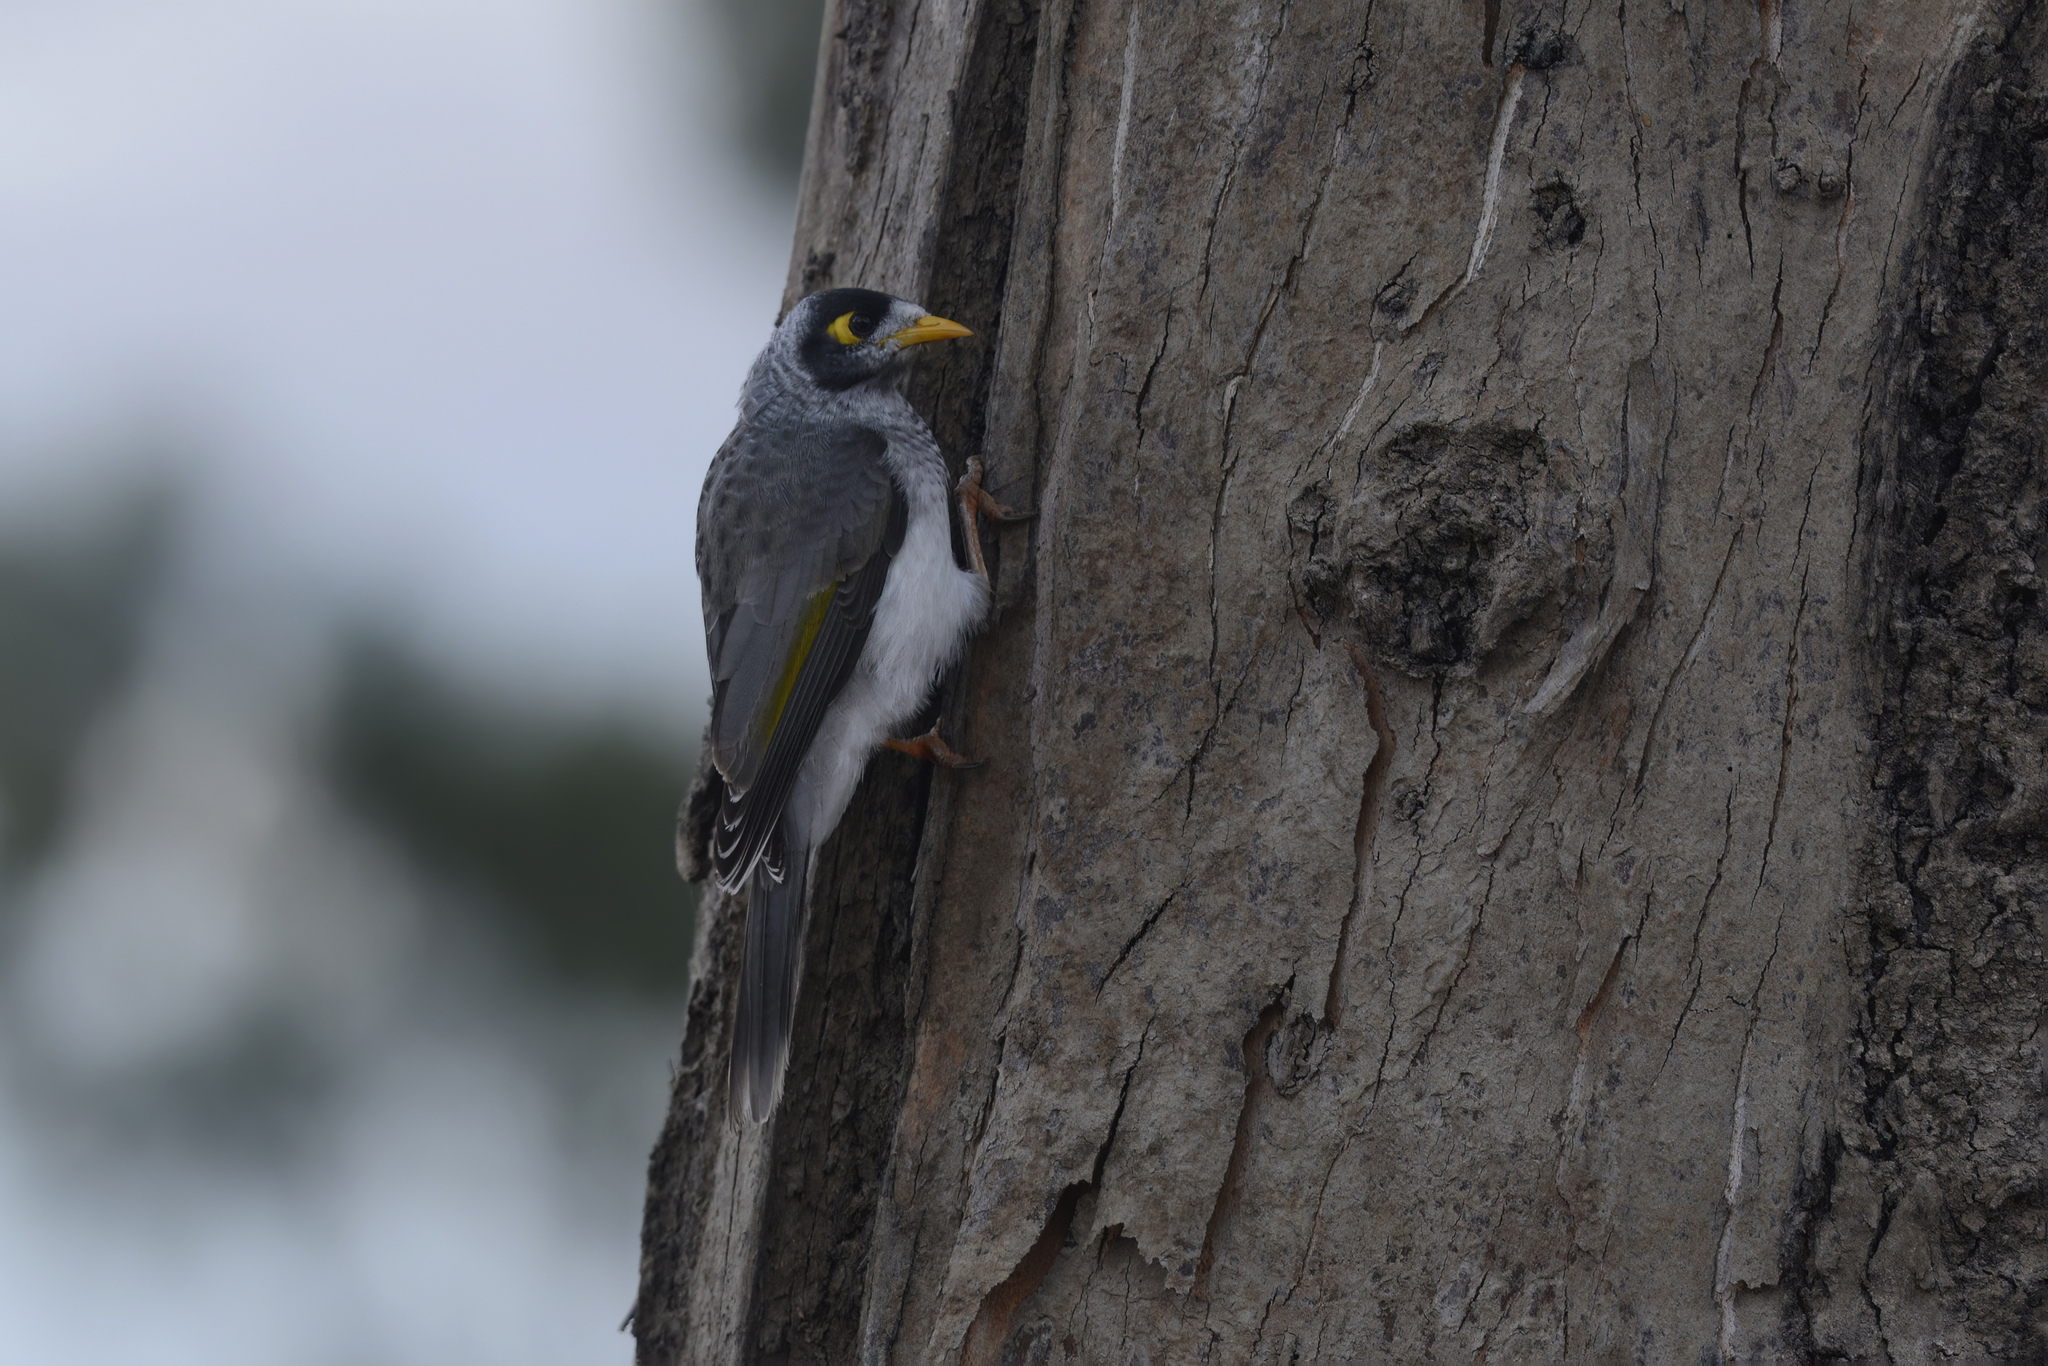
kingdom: Animalia
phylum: Chordata
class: Aves
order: Passeriformes
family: Meliphagidae
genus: Manorina
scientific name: Manorina melanocephala
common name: Noisy miner
